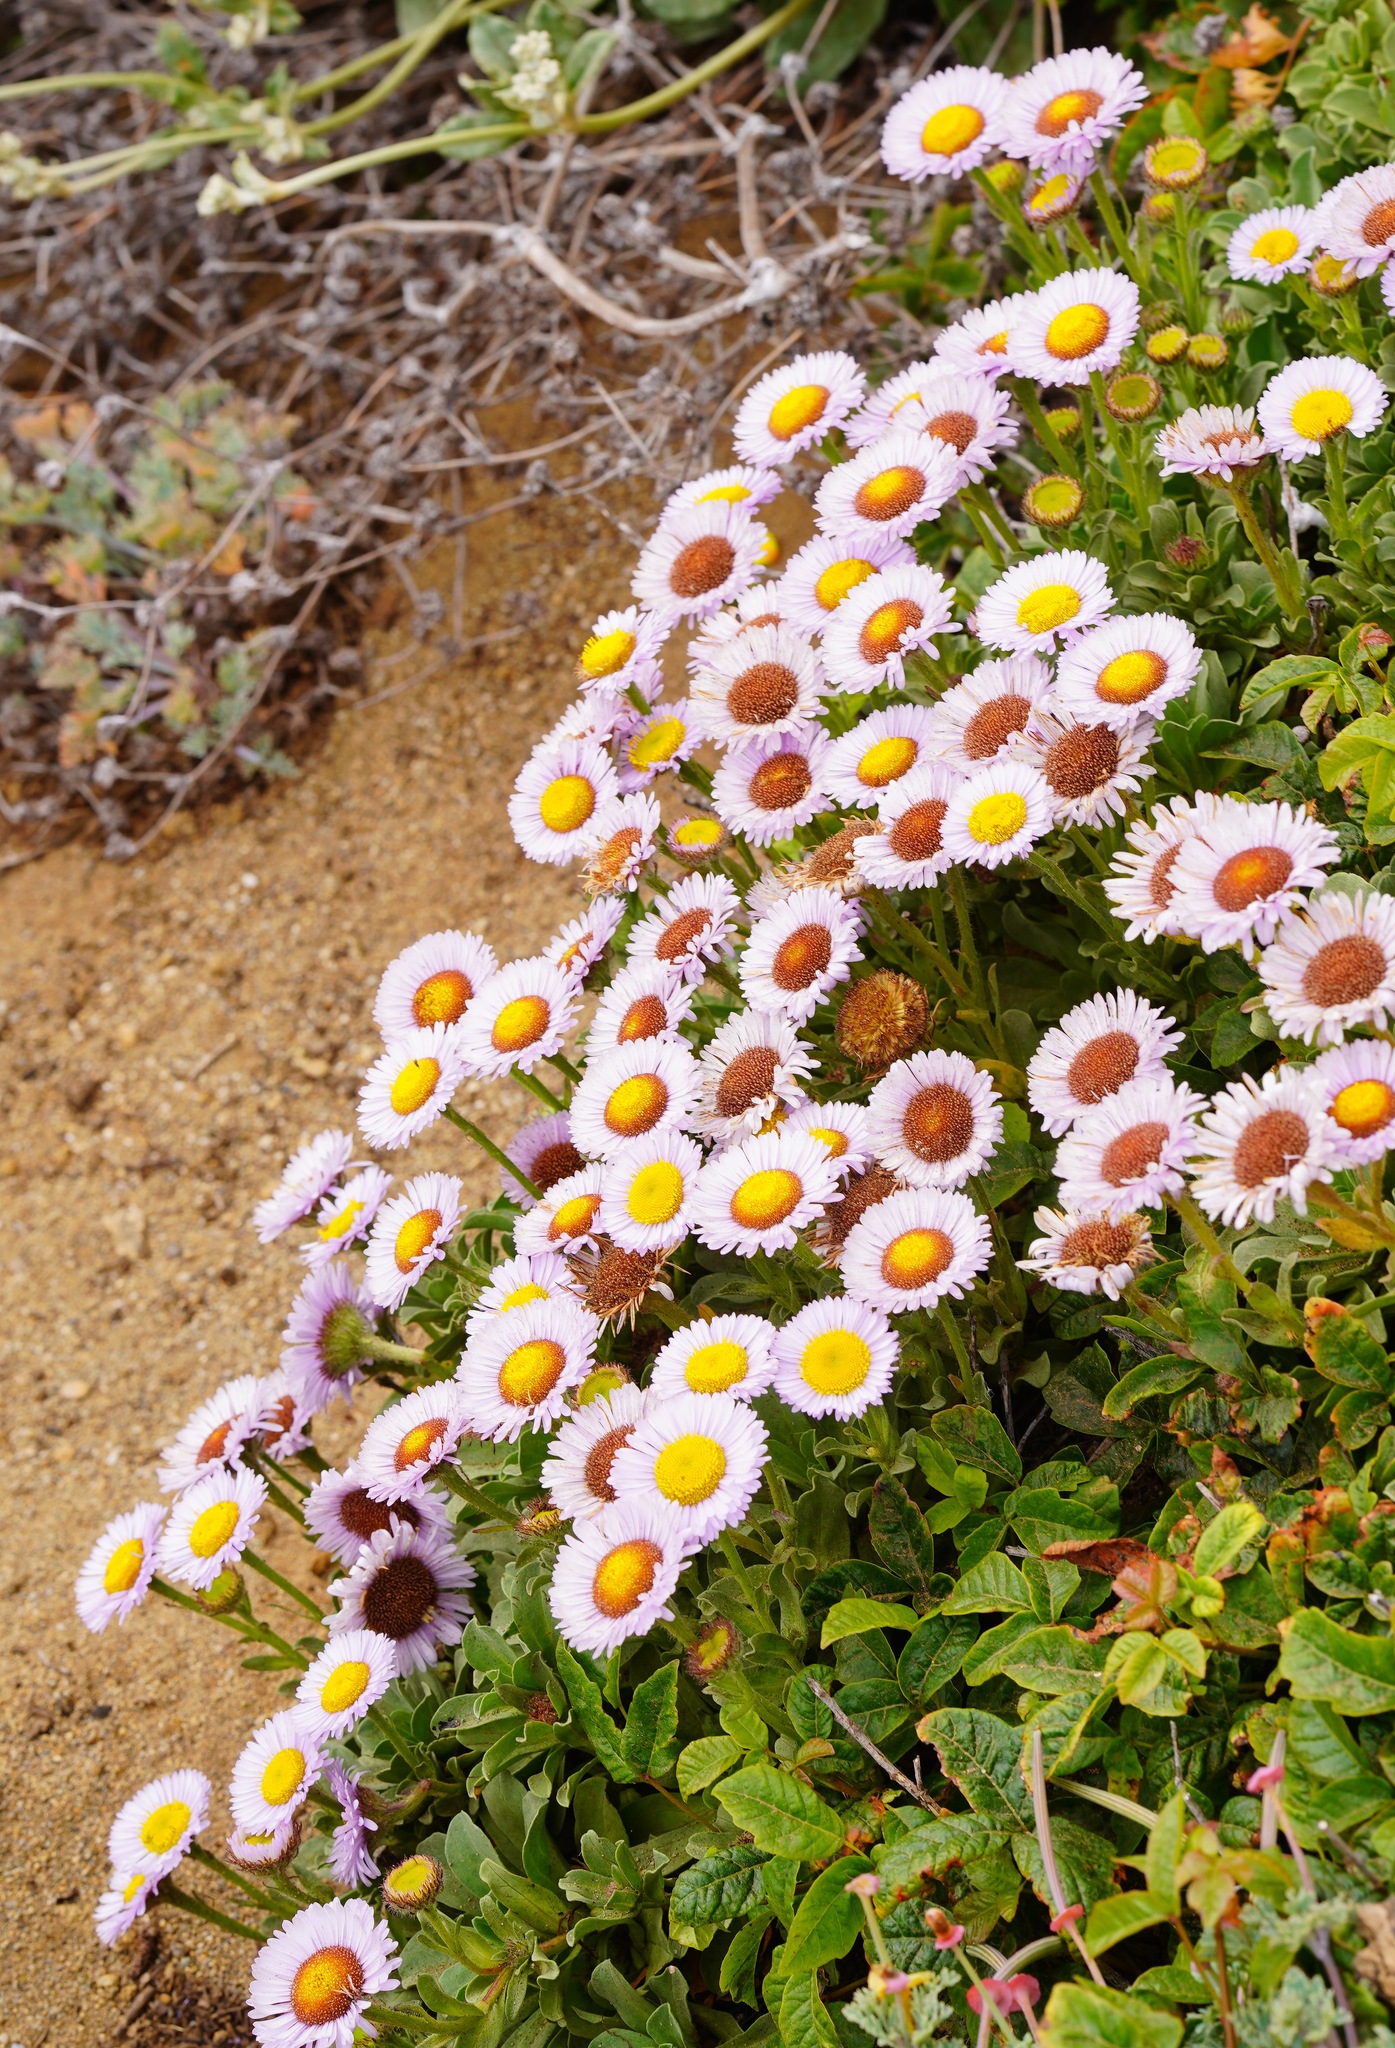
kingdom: Plantae
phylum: Tracheophyta
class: Magnoliopsida
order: Asterales
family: Asteraceae
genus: Erigeron
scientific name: Erigeron glaucus
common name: Seaside daisy
